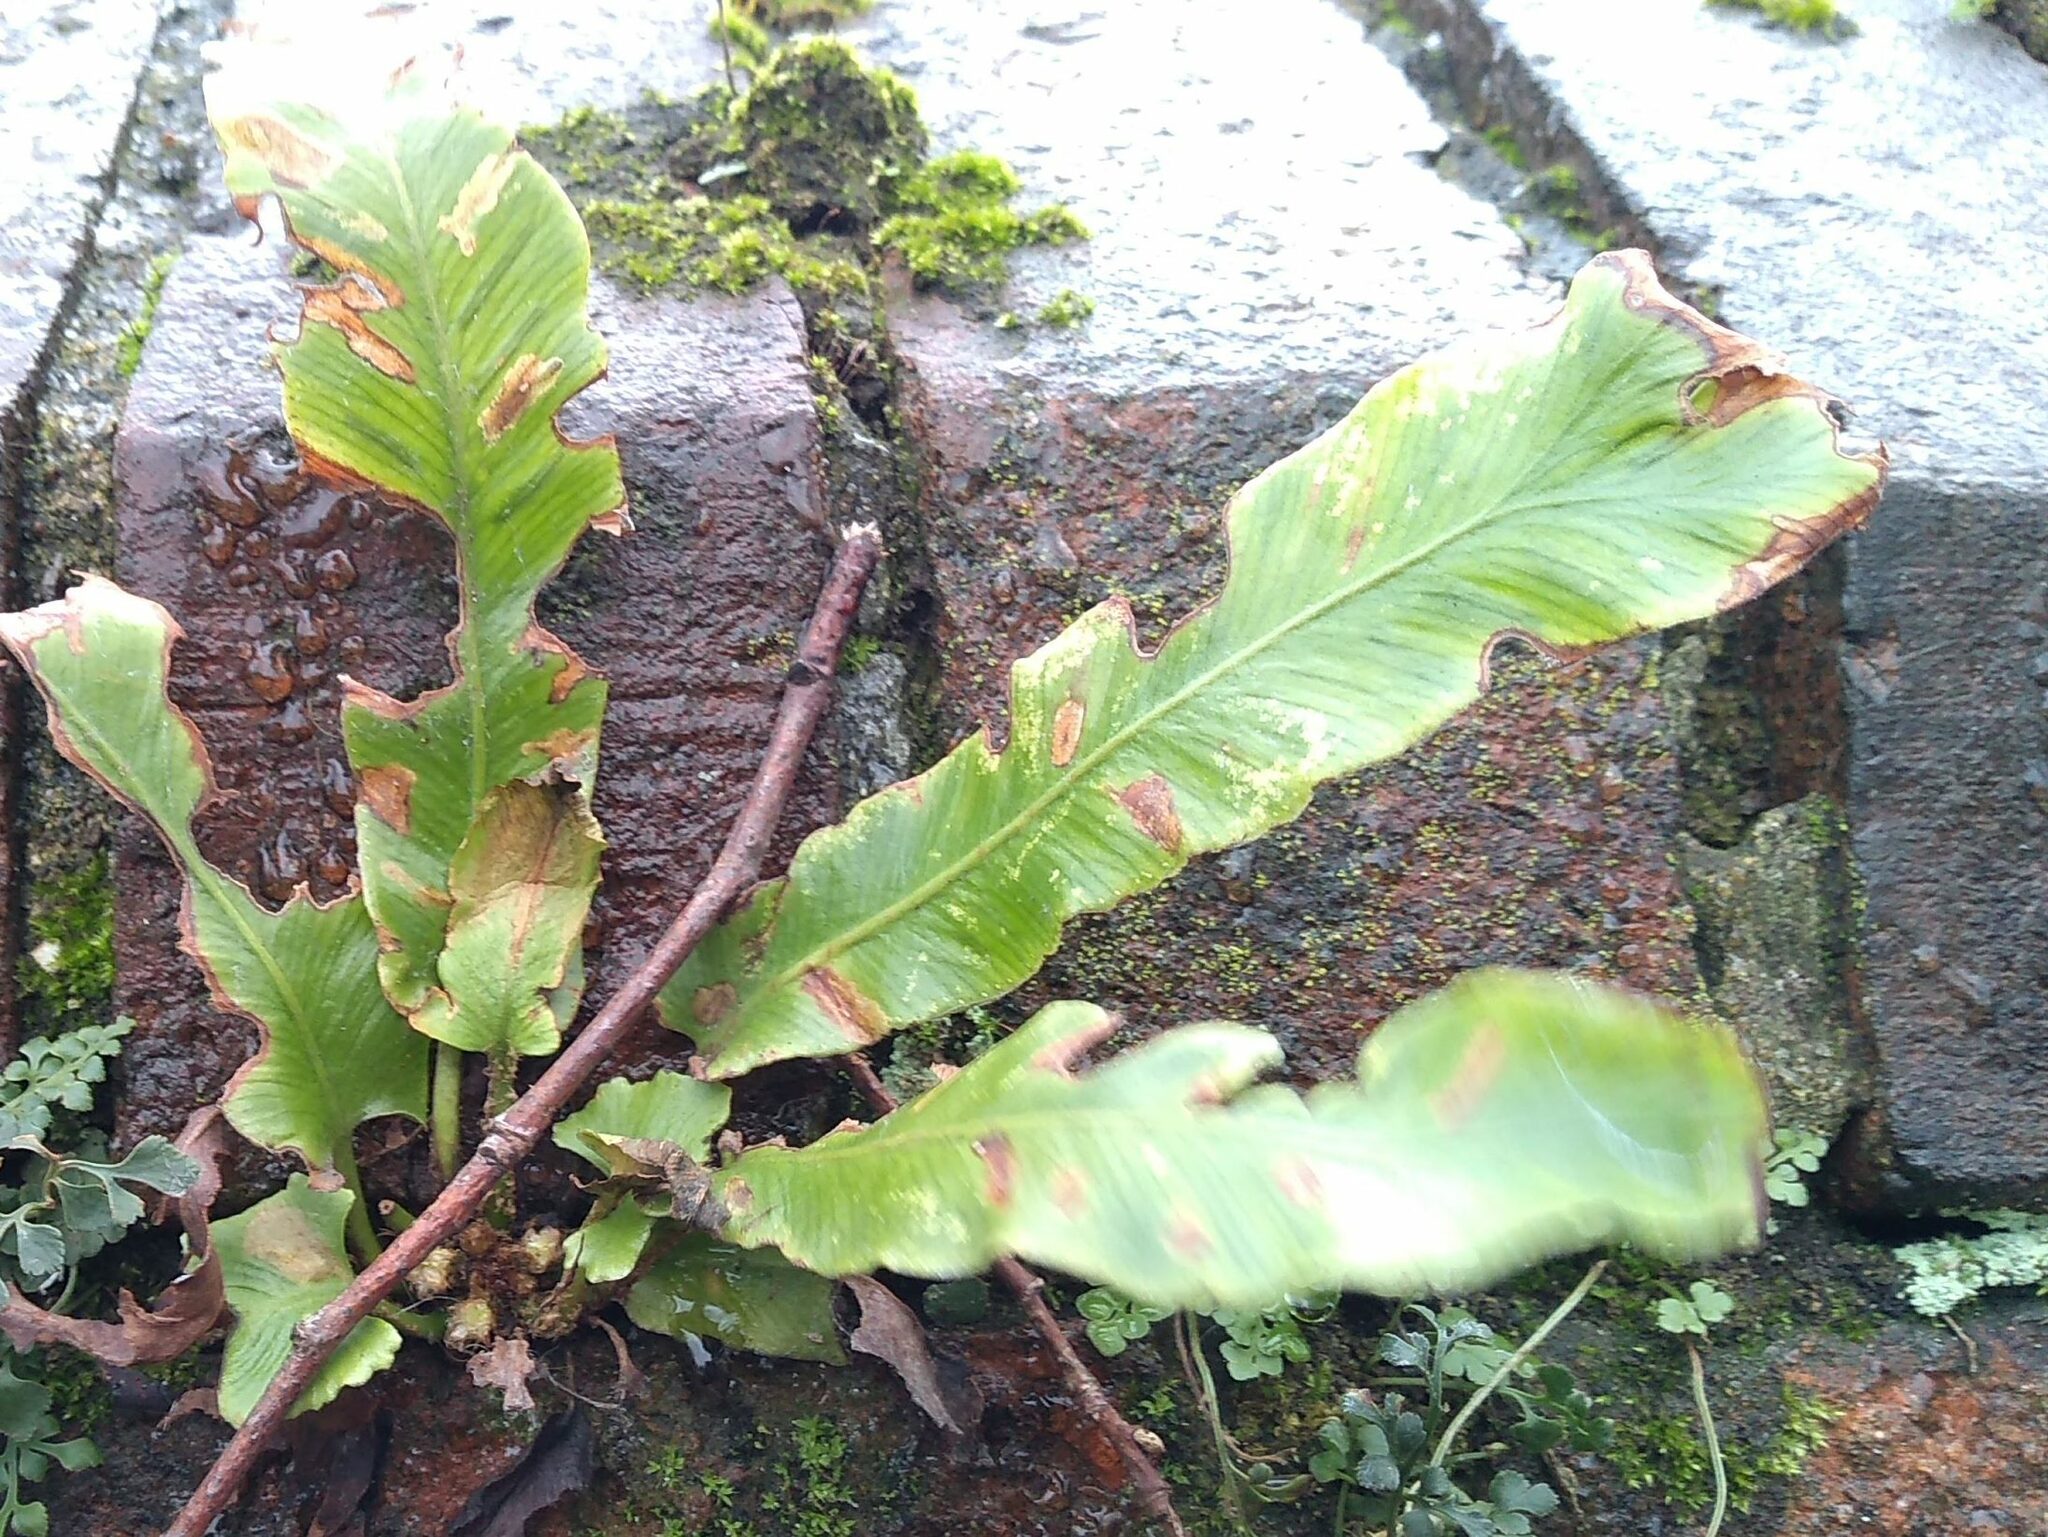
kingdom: Plantae
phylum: Tracheophyta
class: Polypodiopsida
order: Polypodiales
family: Aspleniaceae
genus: Asplenium
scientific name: Asplenium scolopendrium
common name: Hart's-tongue fern
